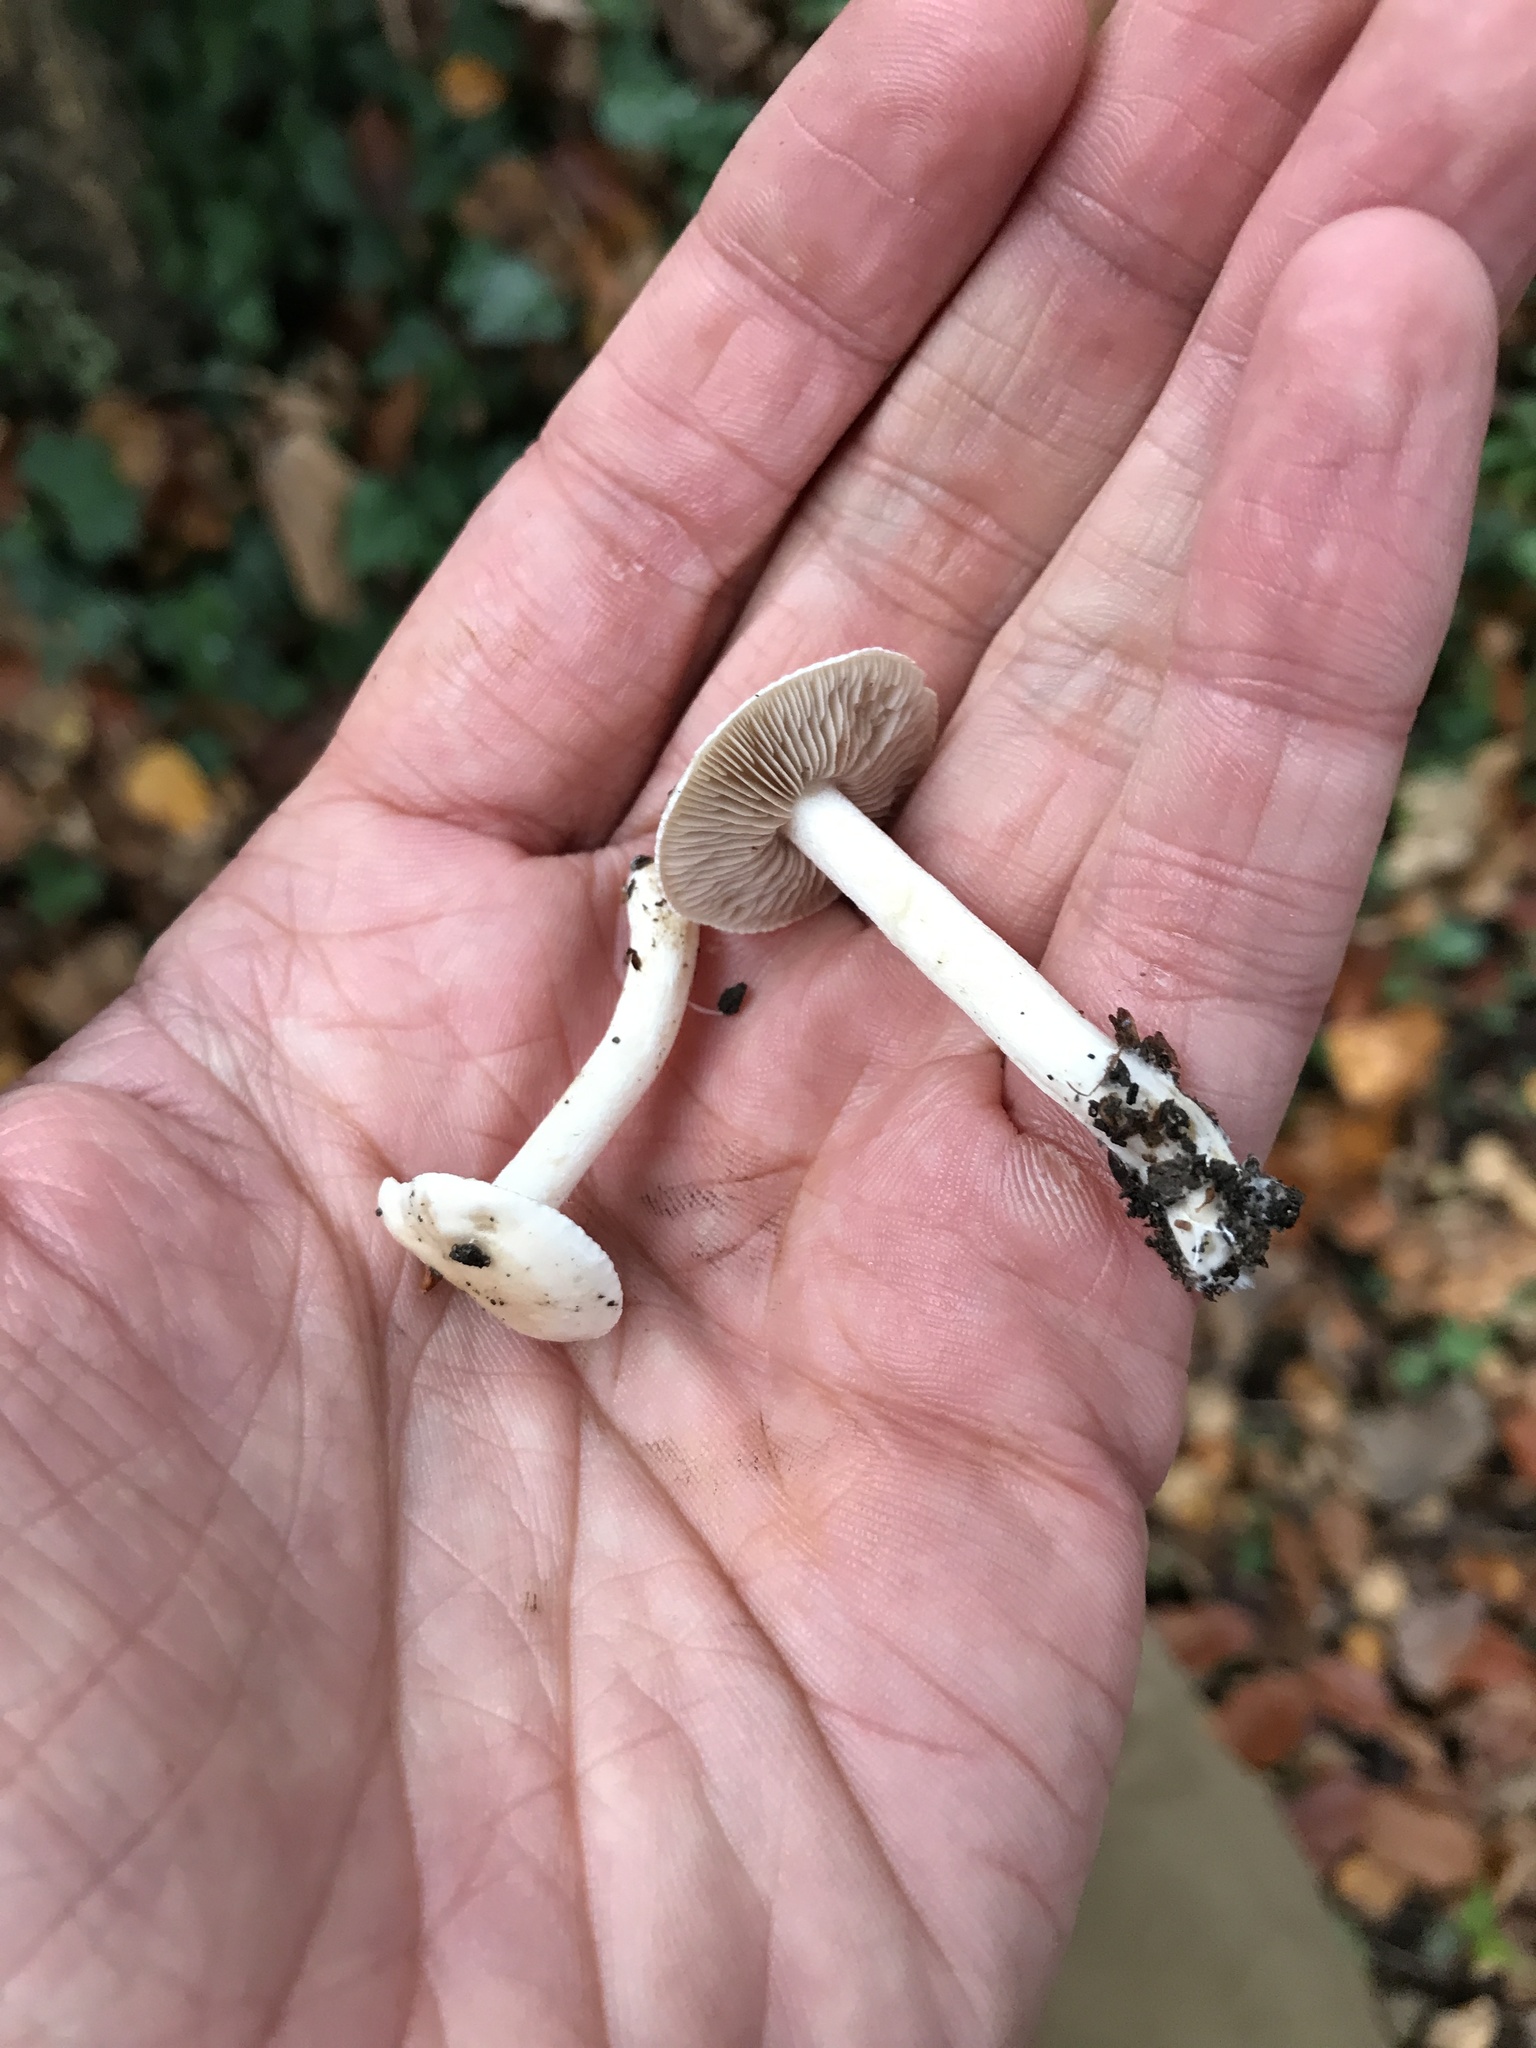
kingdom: Fungi
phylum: Basidiomycota
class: Agaricomycetes
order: Agaricales
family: Hymenogastraceae
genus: Hebeloma
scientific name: Hebeloma crustuliniforme
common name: Poison pie
